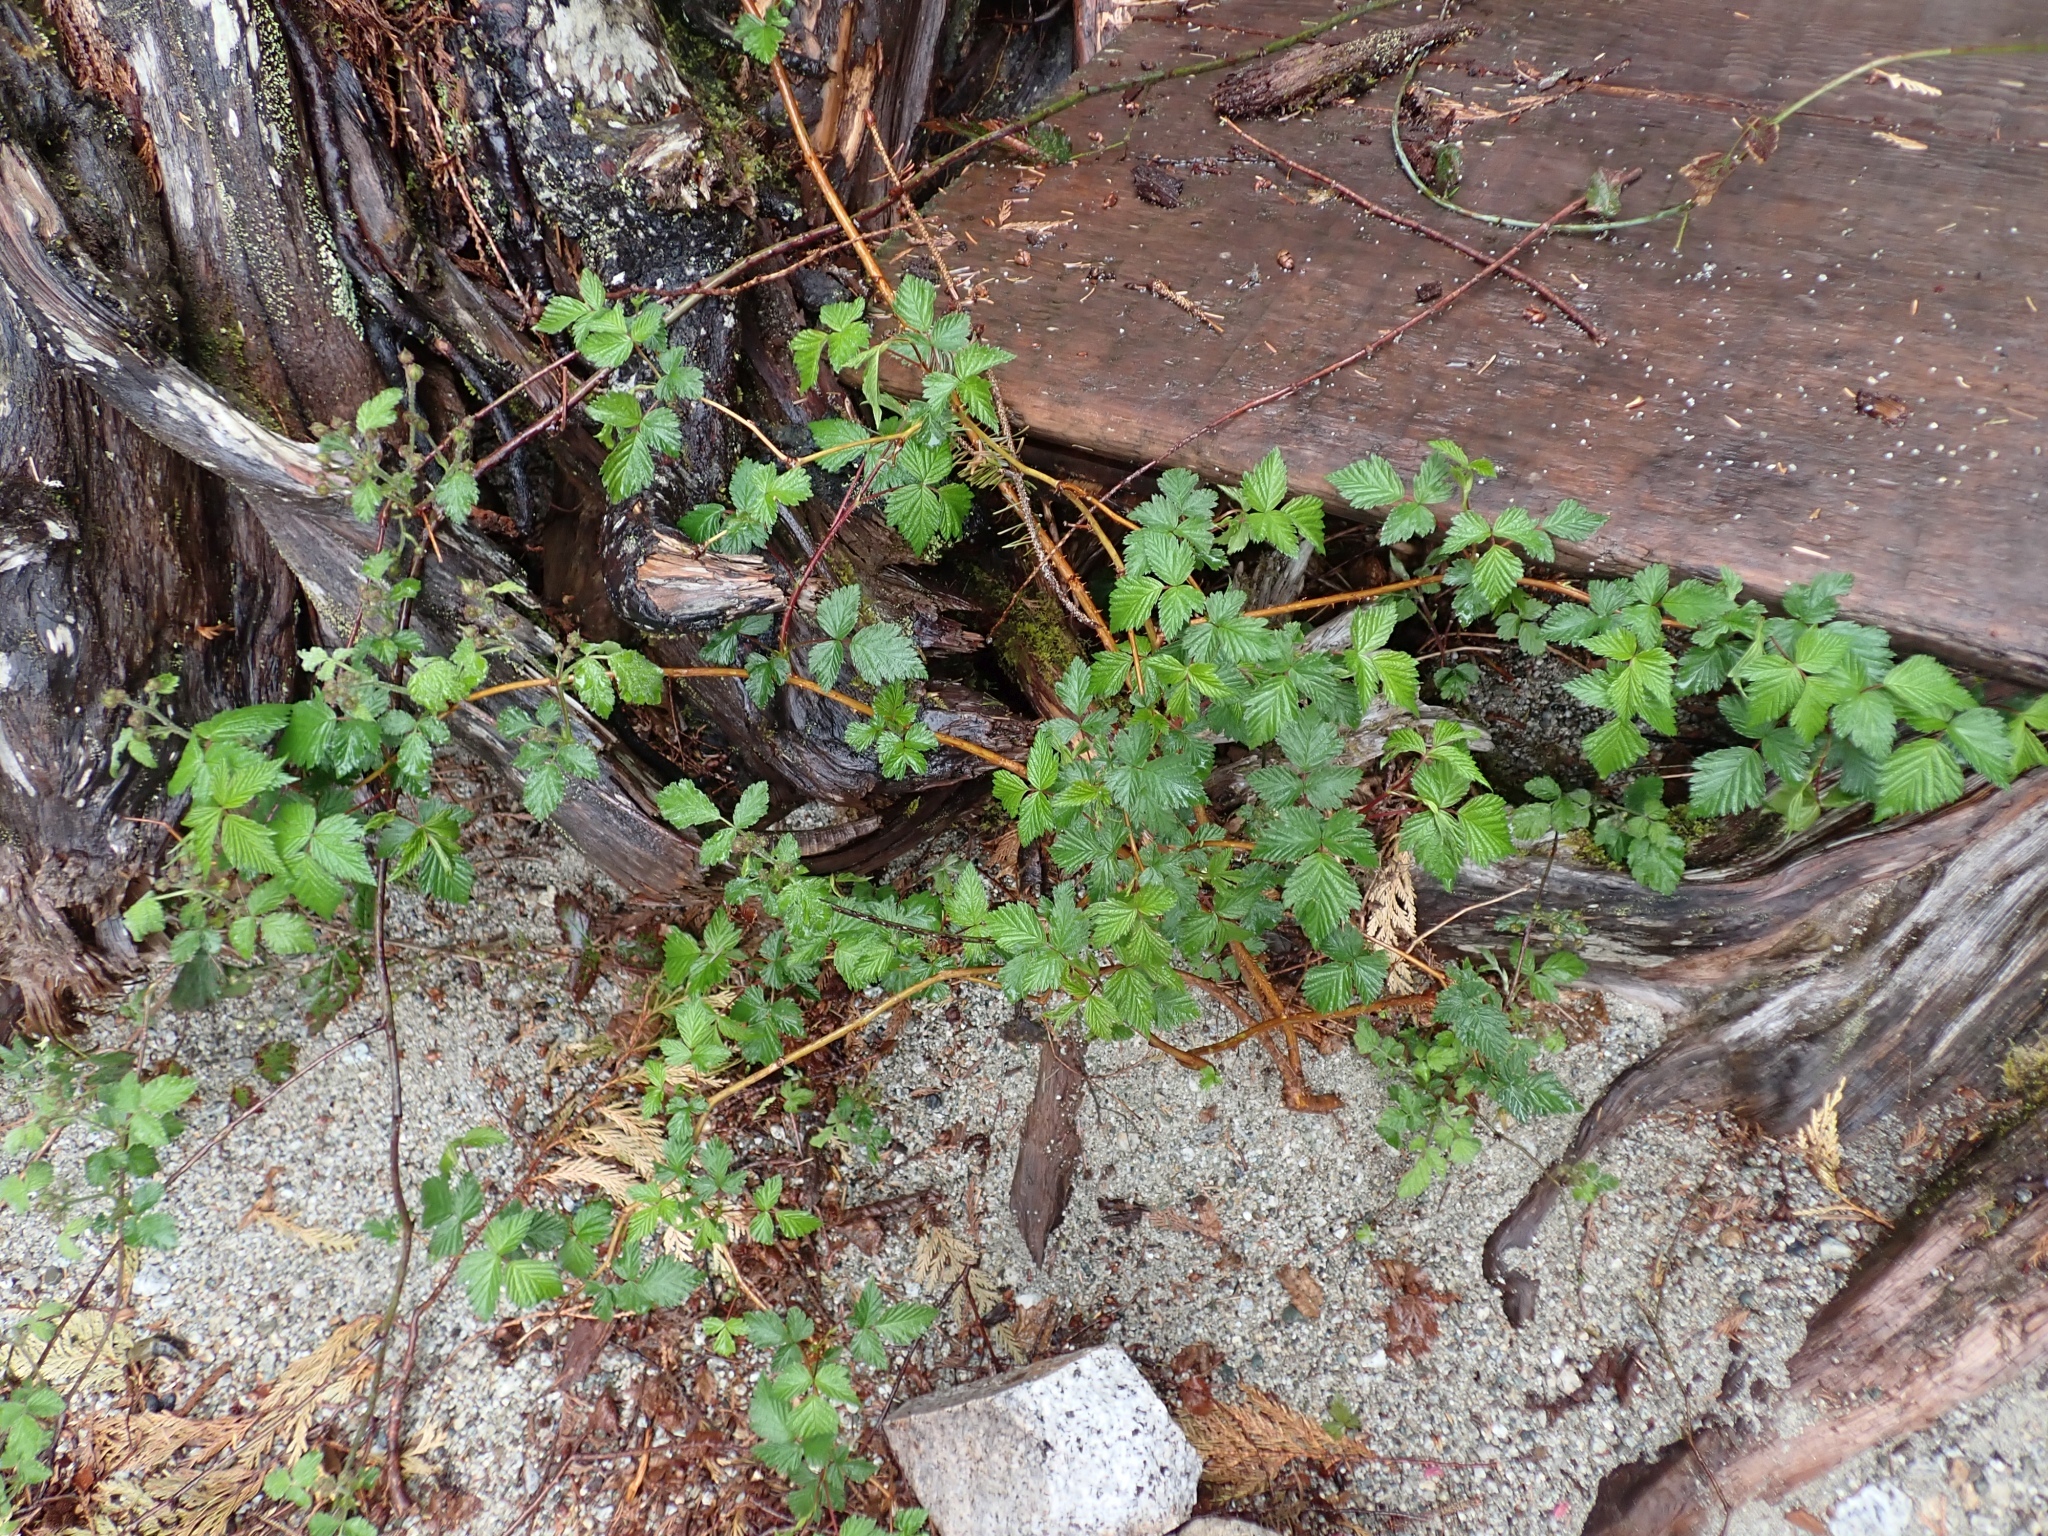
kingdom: Plantae
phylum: Tracheophyta
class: Magnoliopsida
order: Rosales
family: Rosaceae
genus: Rubus
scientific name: Rubus spectabilis
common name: Salmonberry
